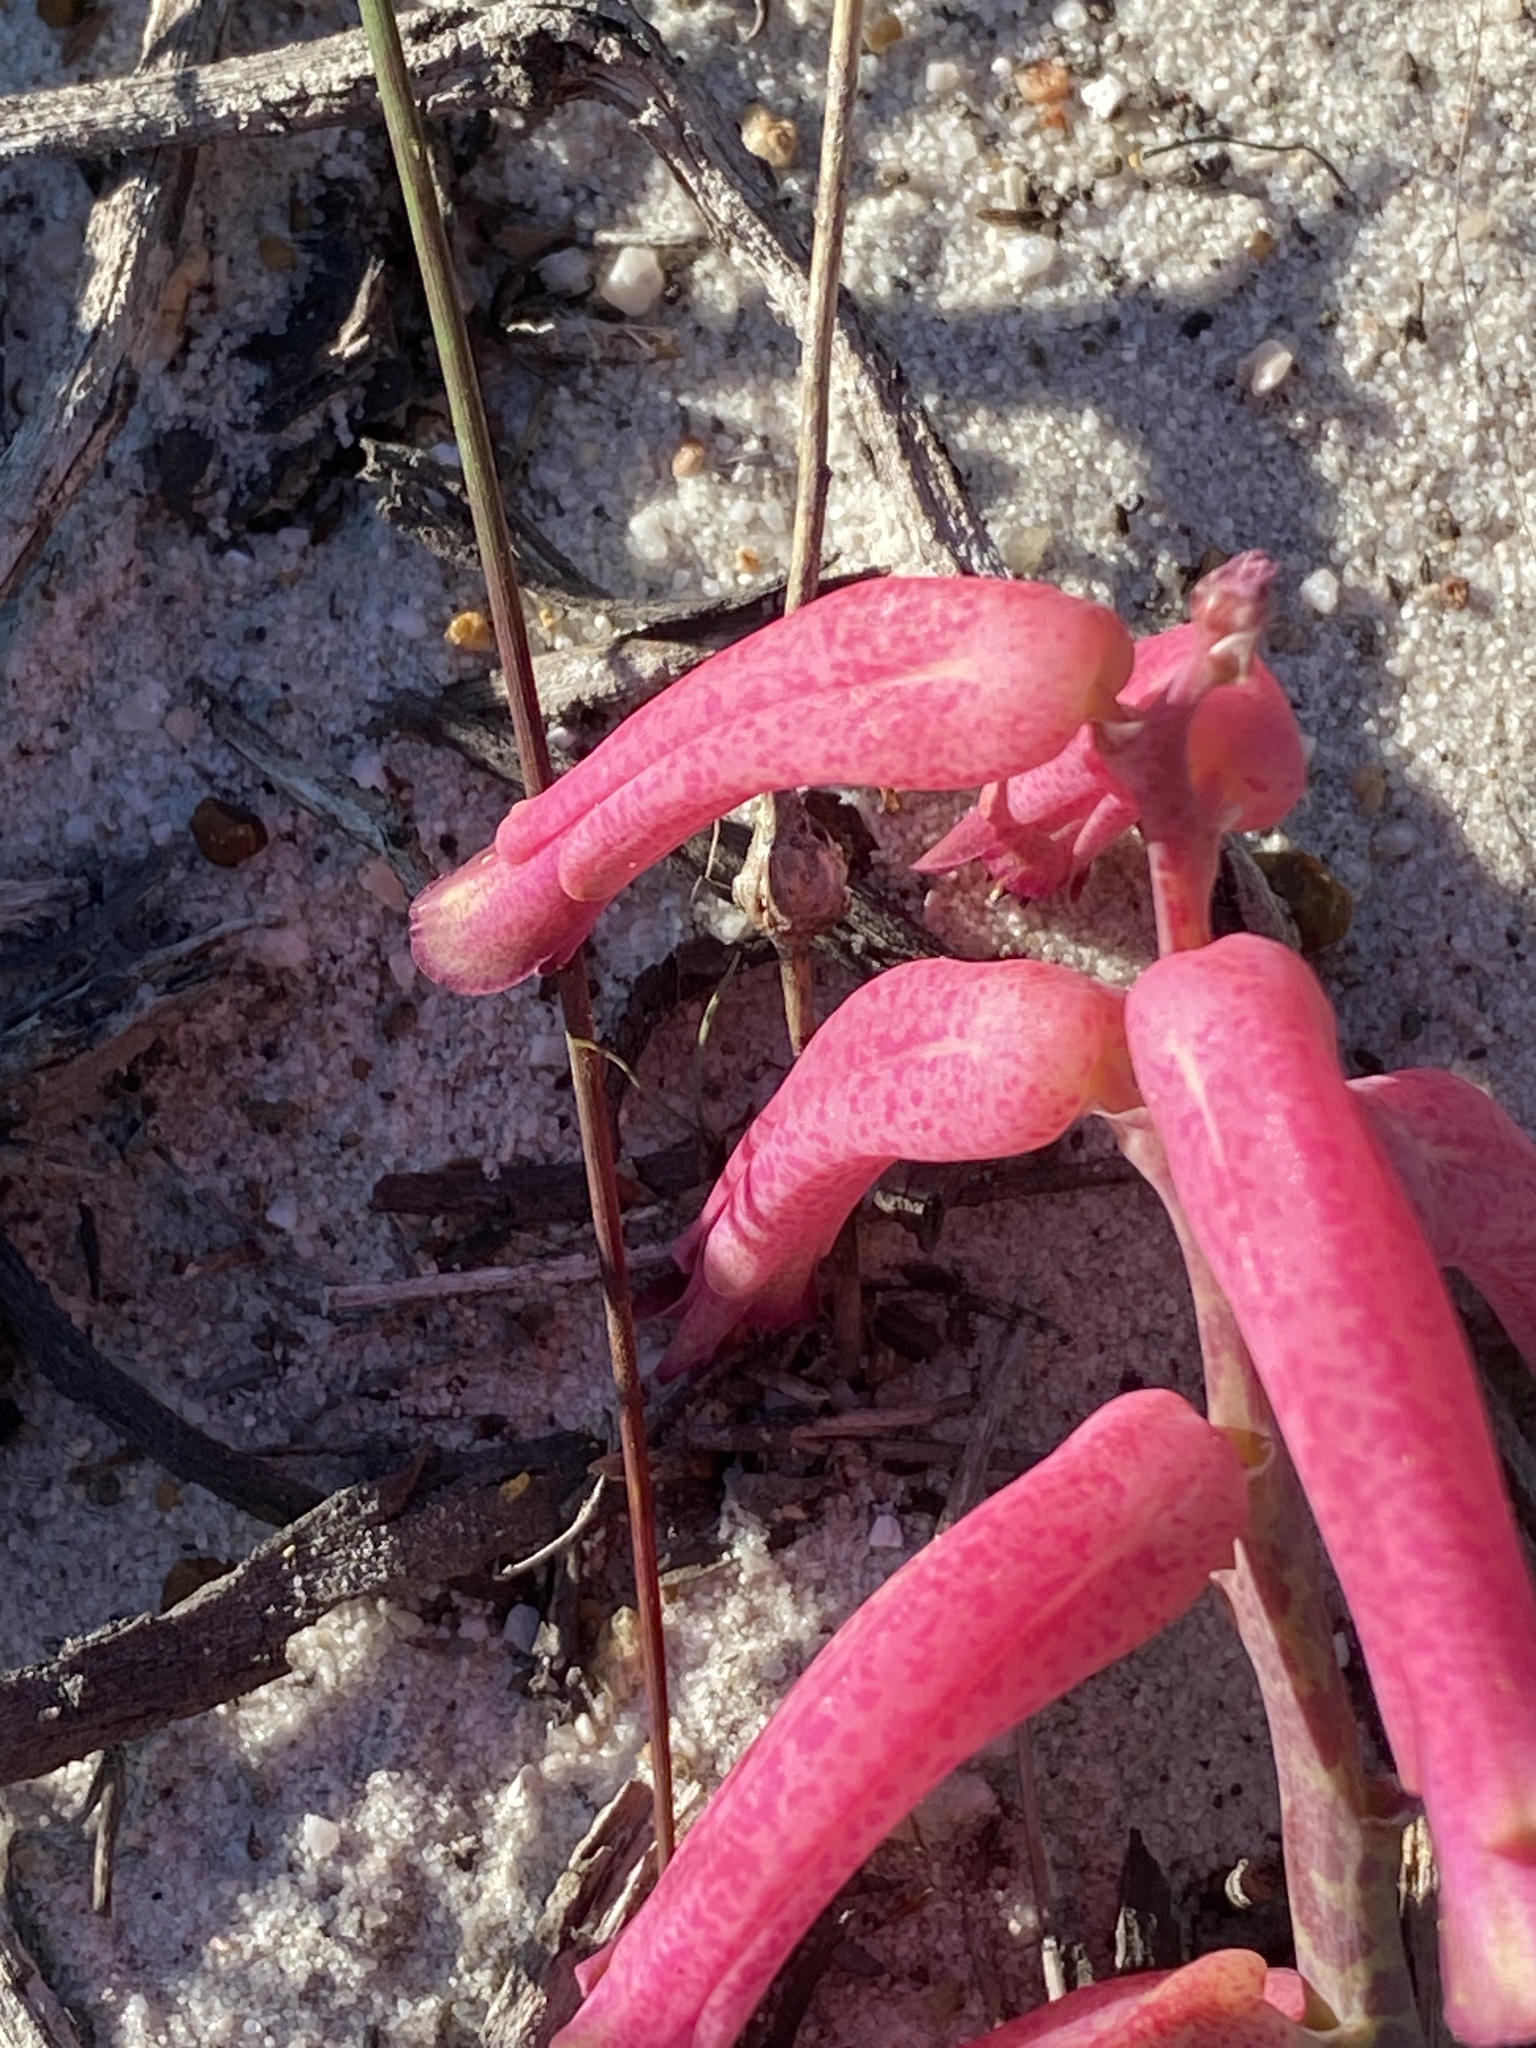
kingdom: Plantae
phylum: Tracheophyta
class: Liliopsida
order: Asparagales
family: Asparagaceae
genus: Lachenalia
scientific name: Lachenalia punctata
